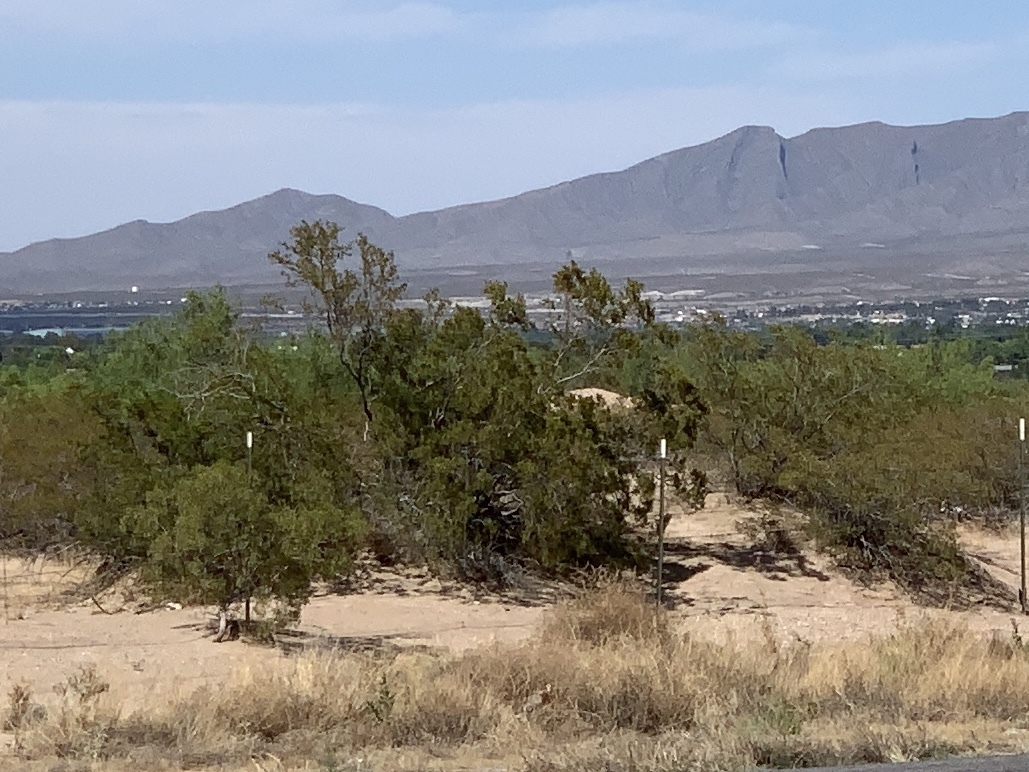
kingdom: Plantae
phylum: Tracheophyta
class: Magnoliopsida
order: Zygophyllales
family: Zygophyllaceae
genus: Larrea
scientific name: Larrea tridentata
